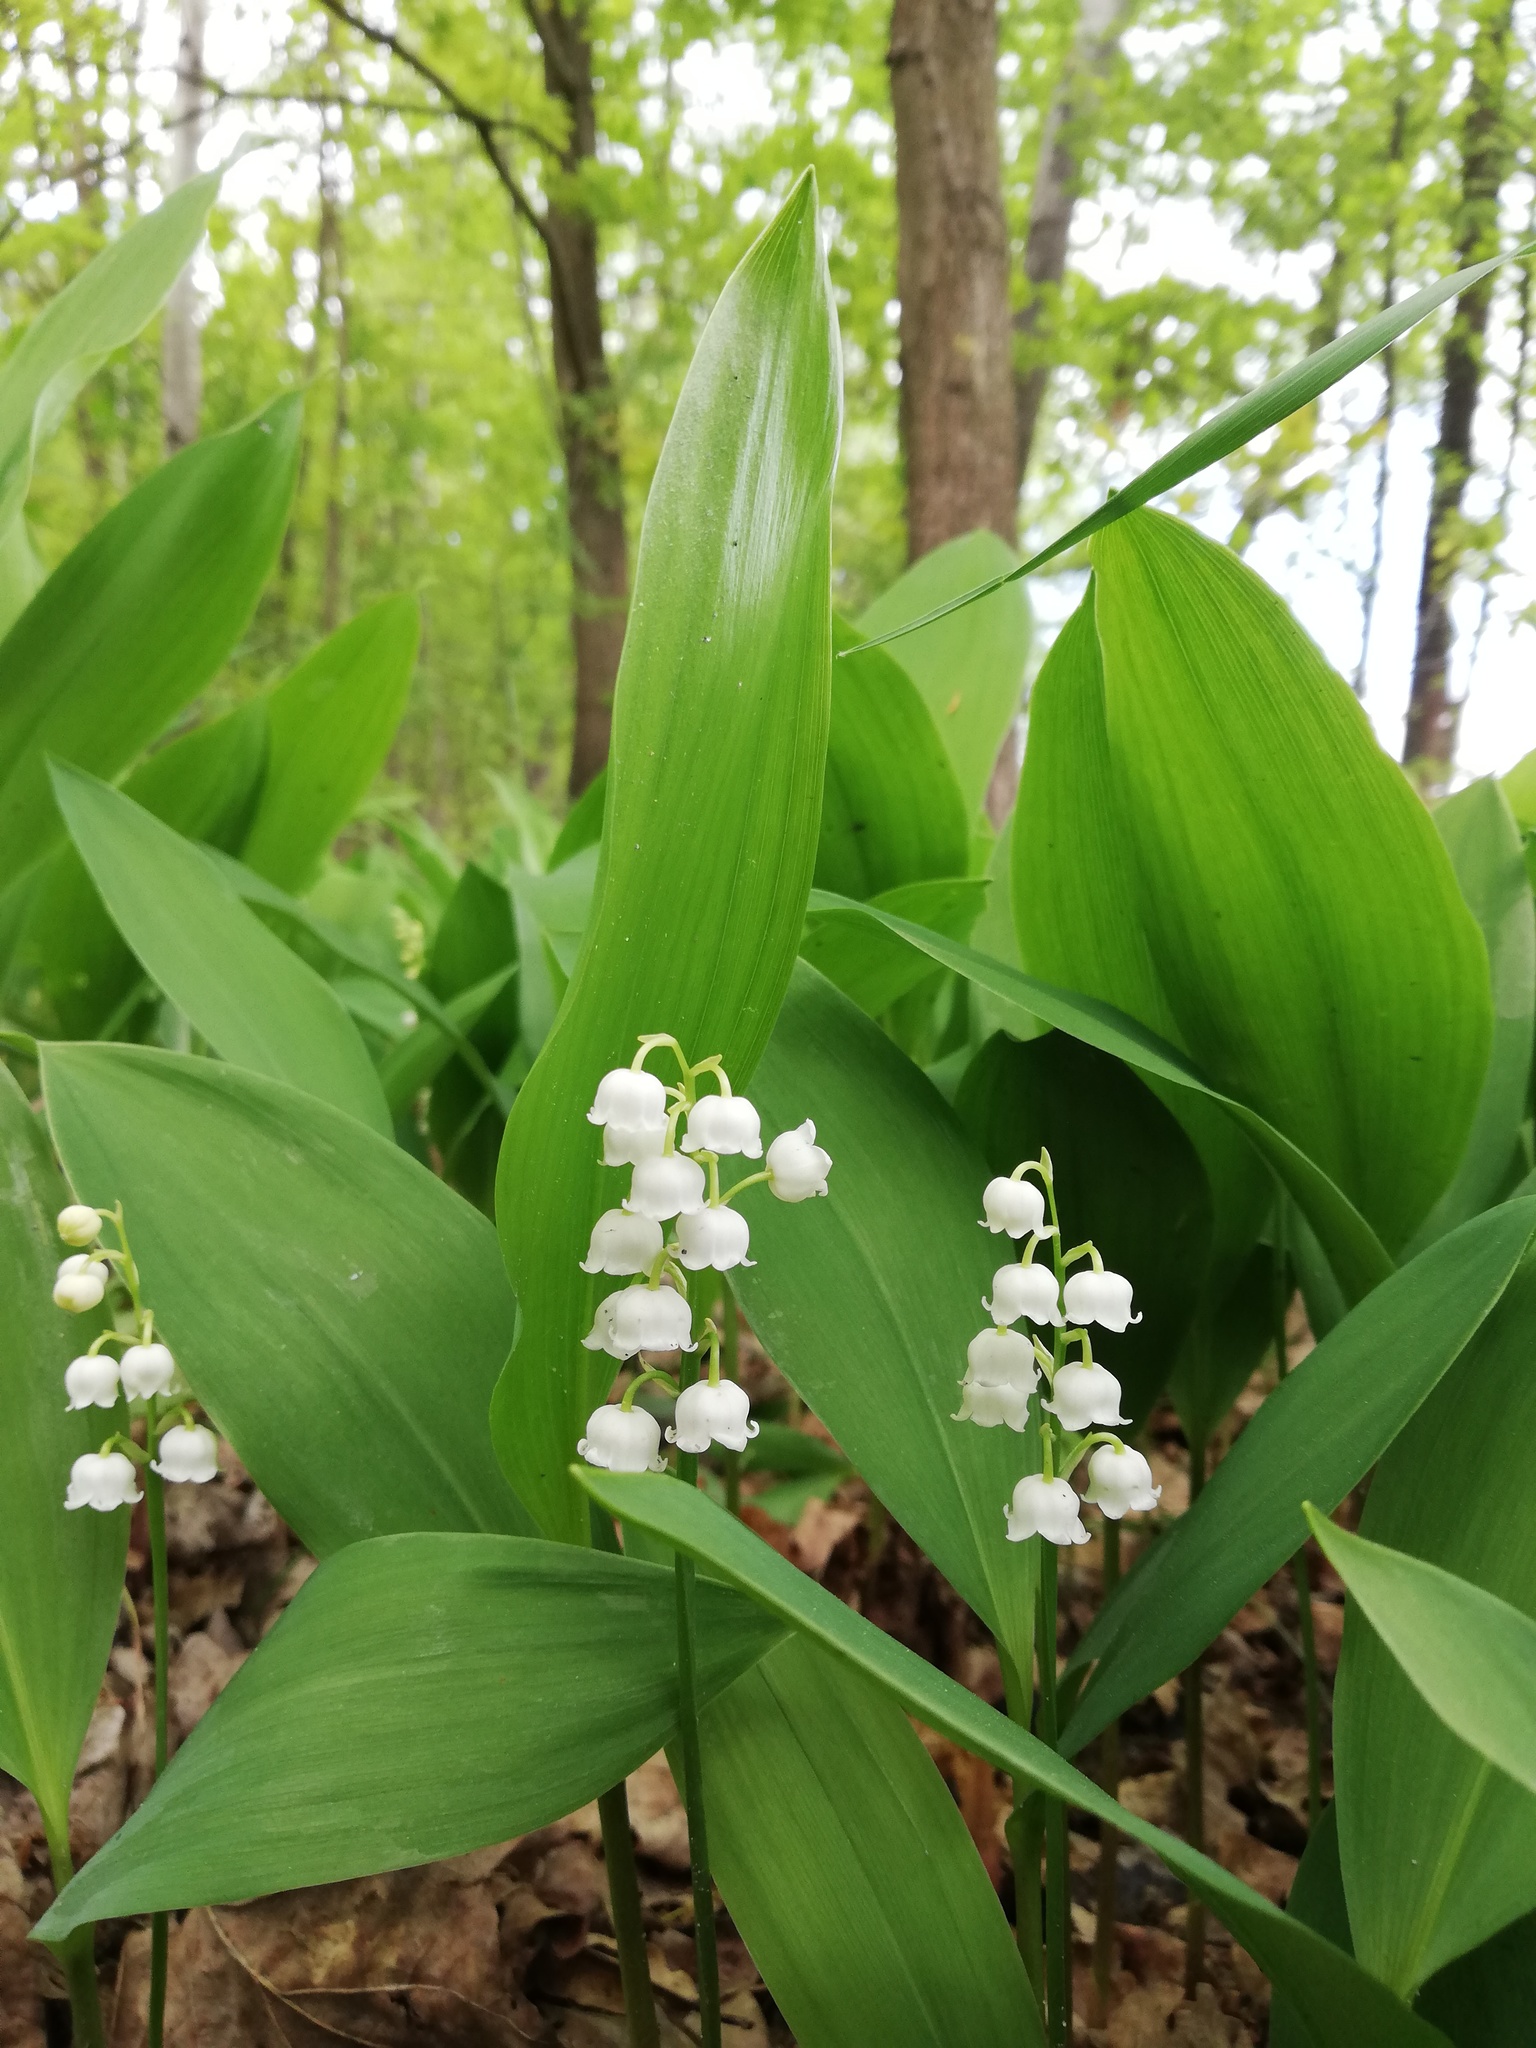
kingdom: Plantae
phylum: Tracheophyta
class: Liliopsida
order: Asparagales
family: Asparagaceae
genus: Convallaria
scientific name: Convallaria majalis
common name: Lily-of-the-valley
